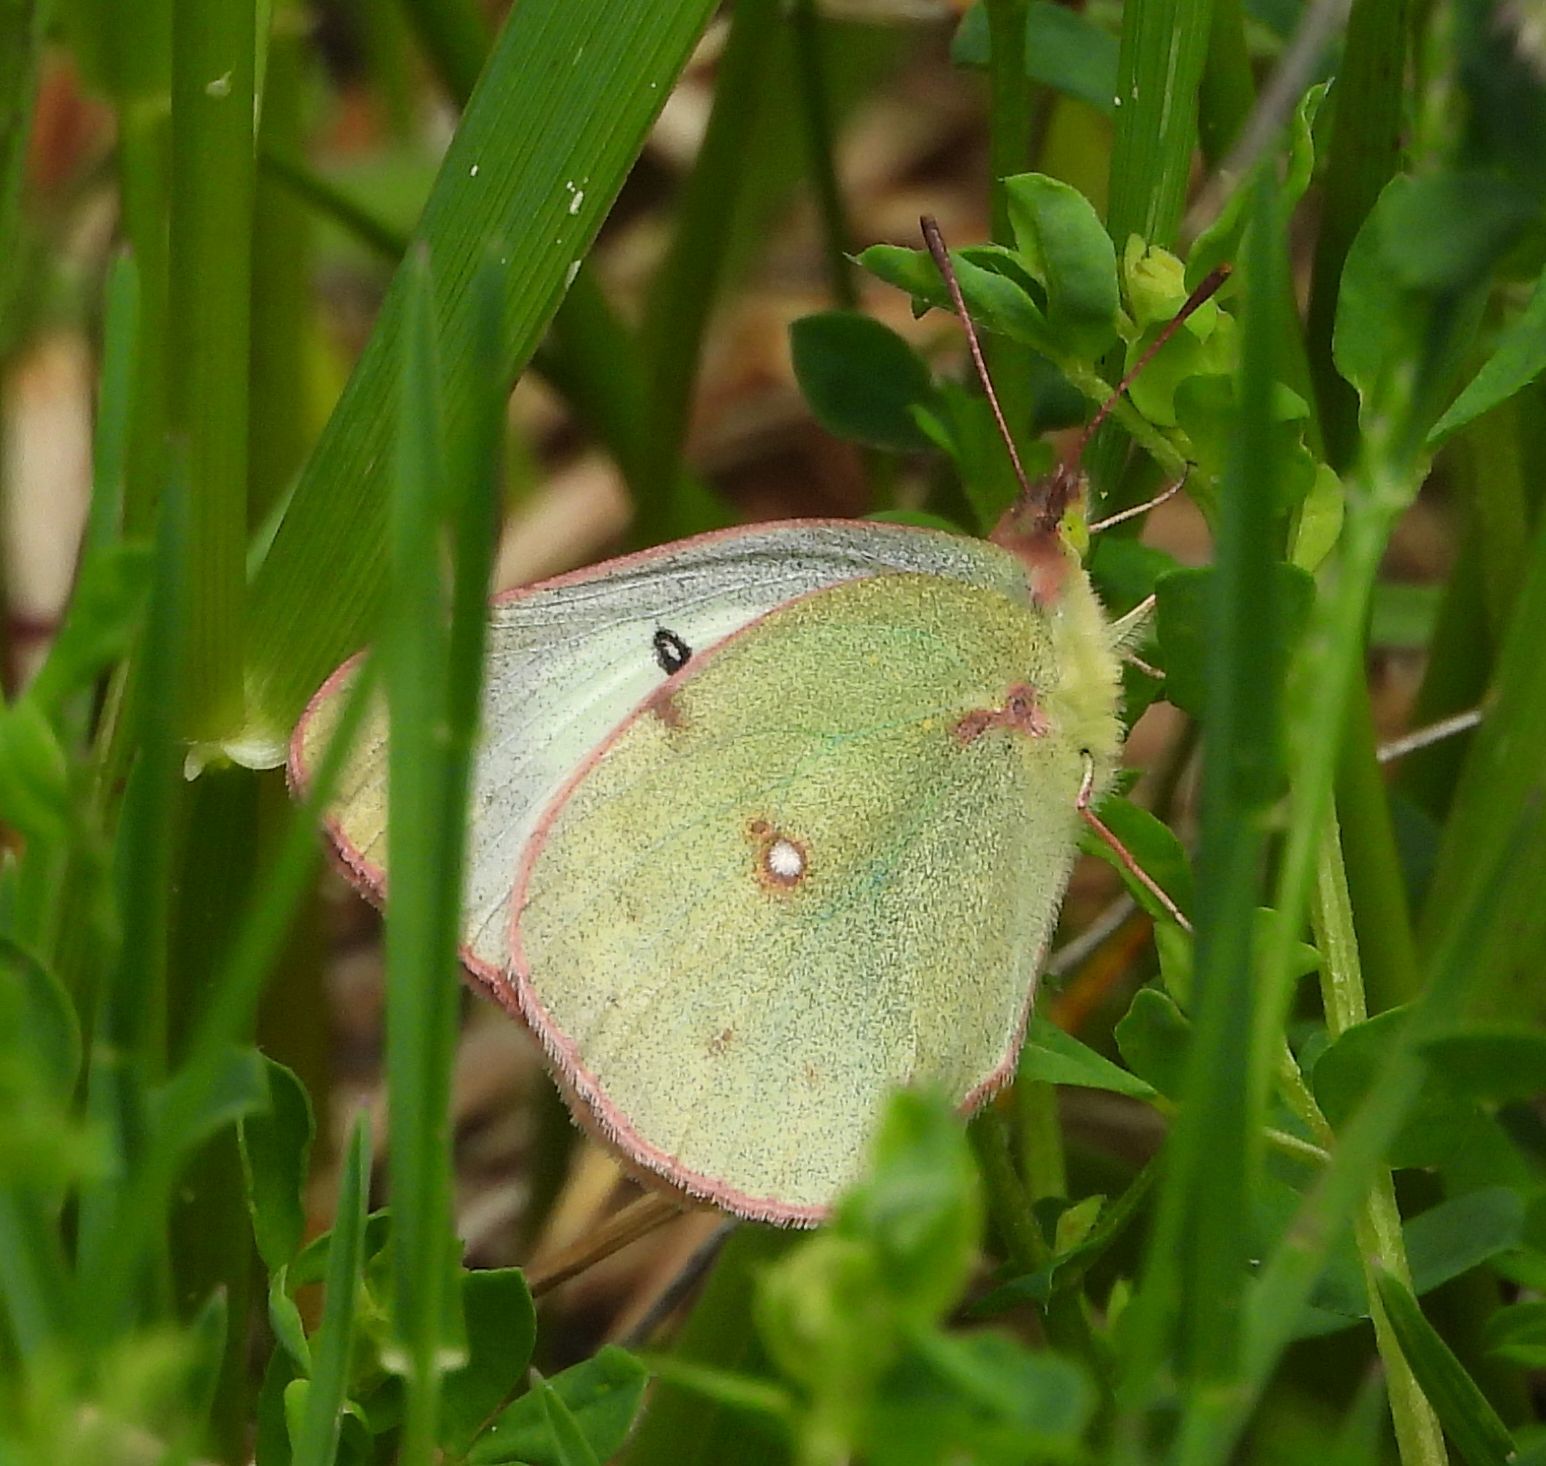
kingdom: Animalia
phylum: Arthropoda
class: Insecta
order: Lepidoptera
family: Pieridae
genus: Colias
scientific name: Colias philodice
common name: Clouded sulphur
